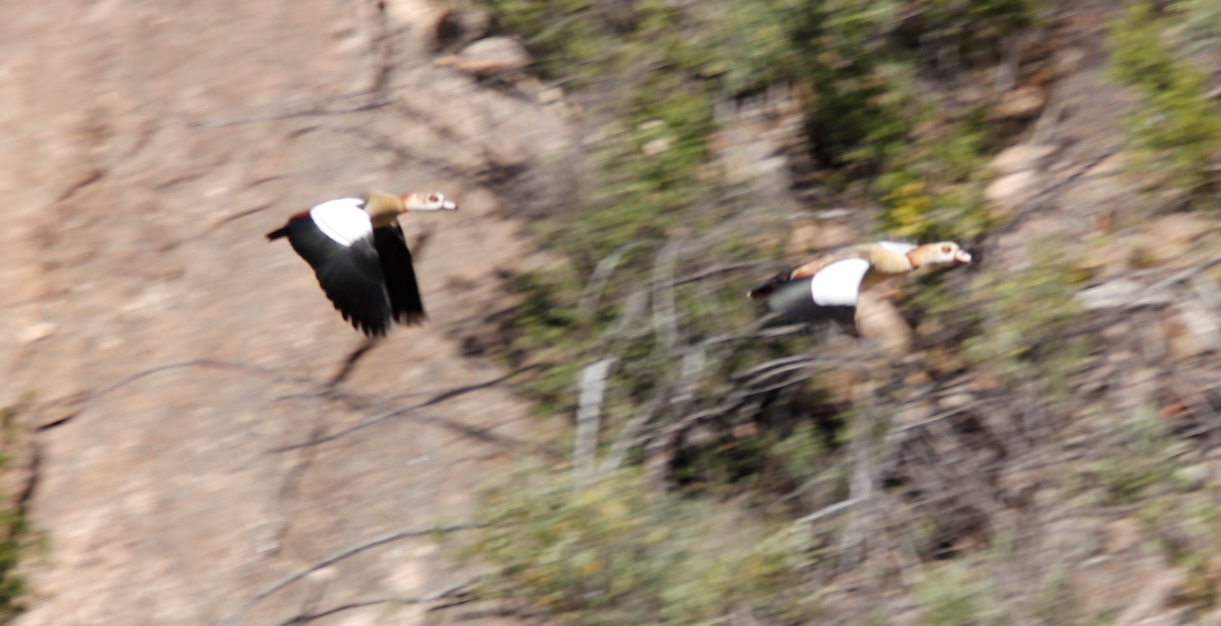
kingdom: Animalia
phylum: Chordata
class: Aves
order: Anseriformes
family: Anatidae
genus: Alopochen
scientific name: Alopochen aegyptiaca
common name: Egyptian goose
